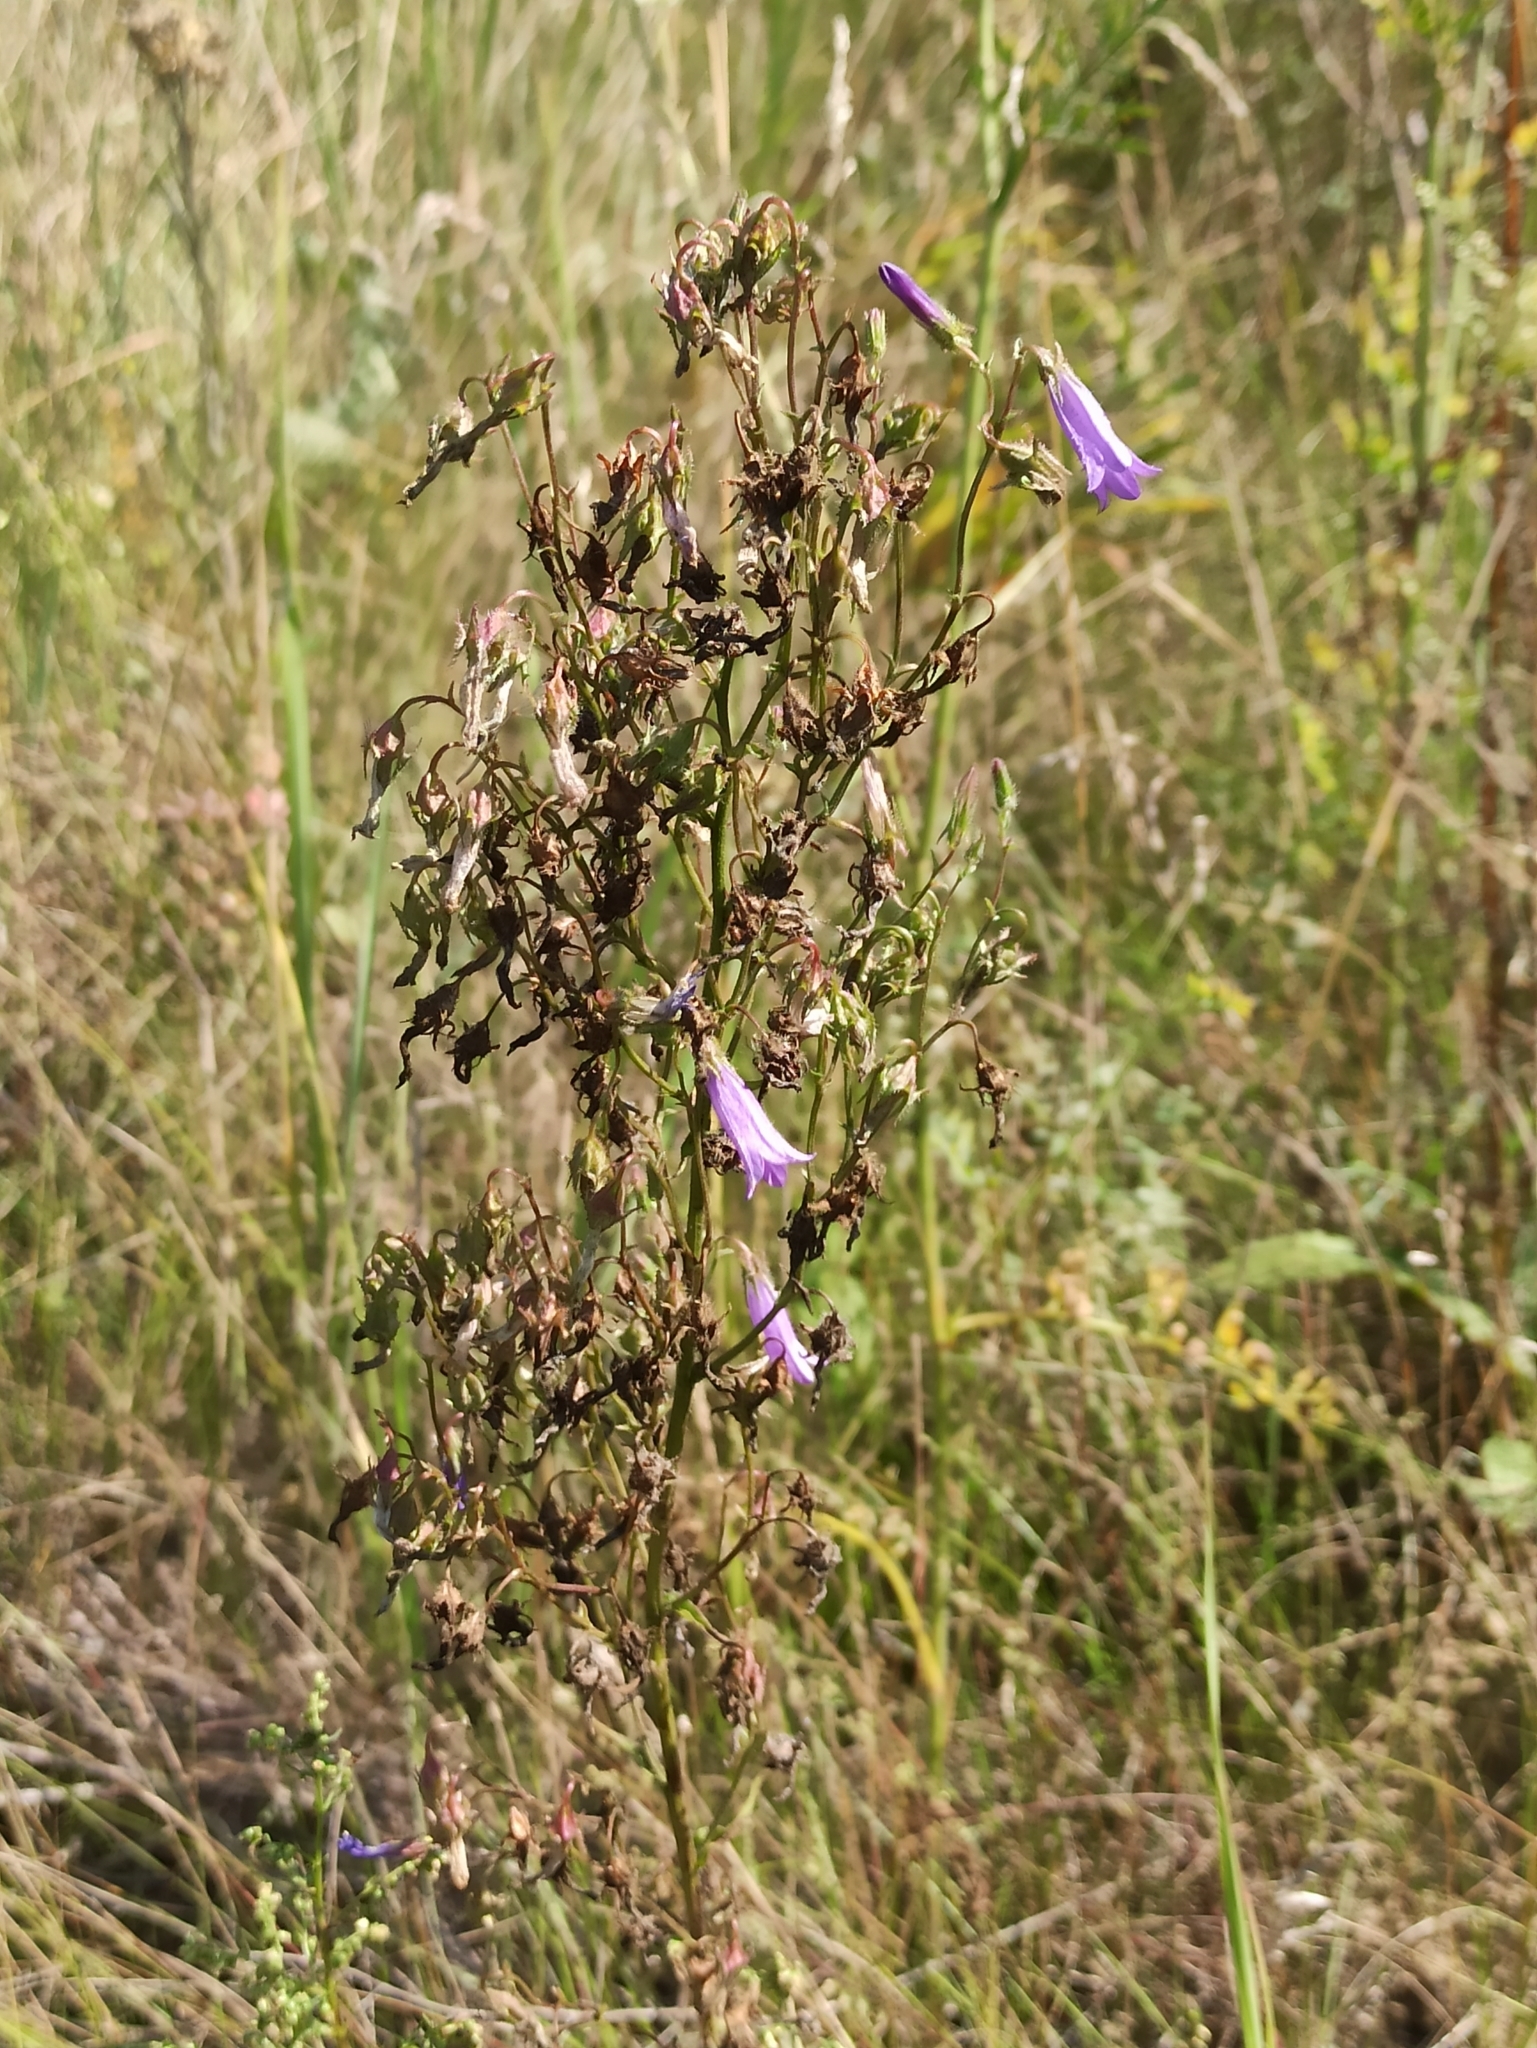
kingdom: Plantae
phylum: Tracheophyta
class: Magnoliopsida
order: Asterales
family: Campanulaceae
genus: Campanula
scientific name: Campanula sibirica
